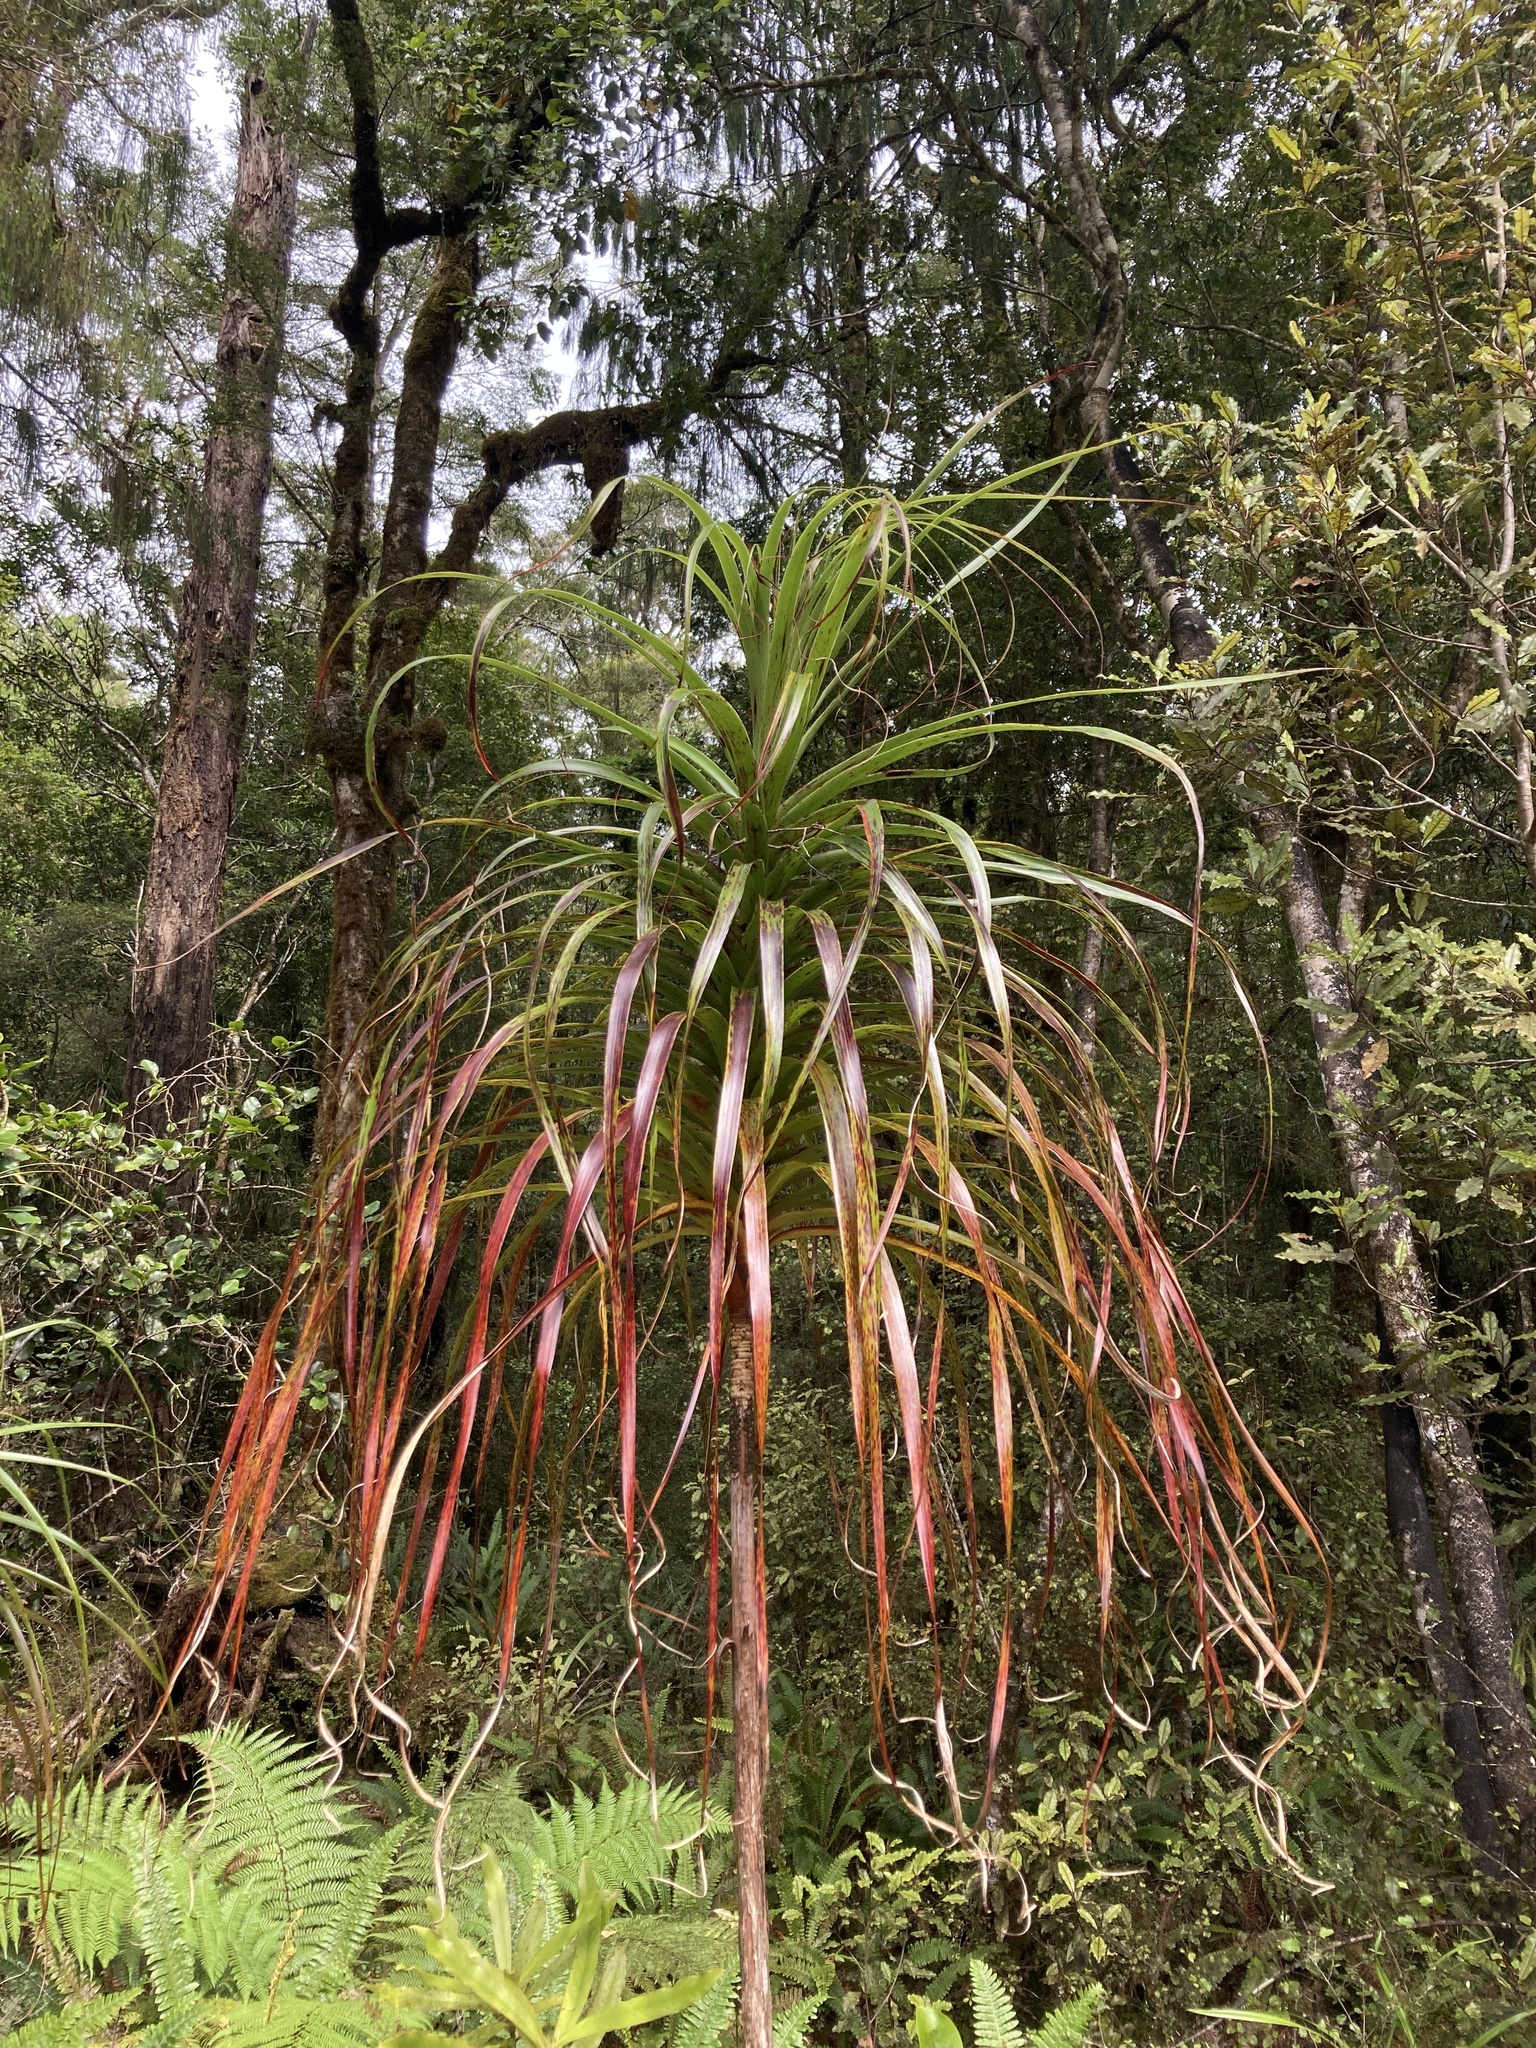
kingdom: Plantae
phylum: Tracheophyta
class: Magnoliopsida
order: Ericales
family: Ericaceae
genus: Dracophyllum
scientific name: Dracophyllum elegantissimum
